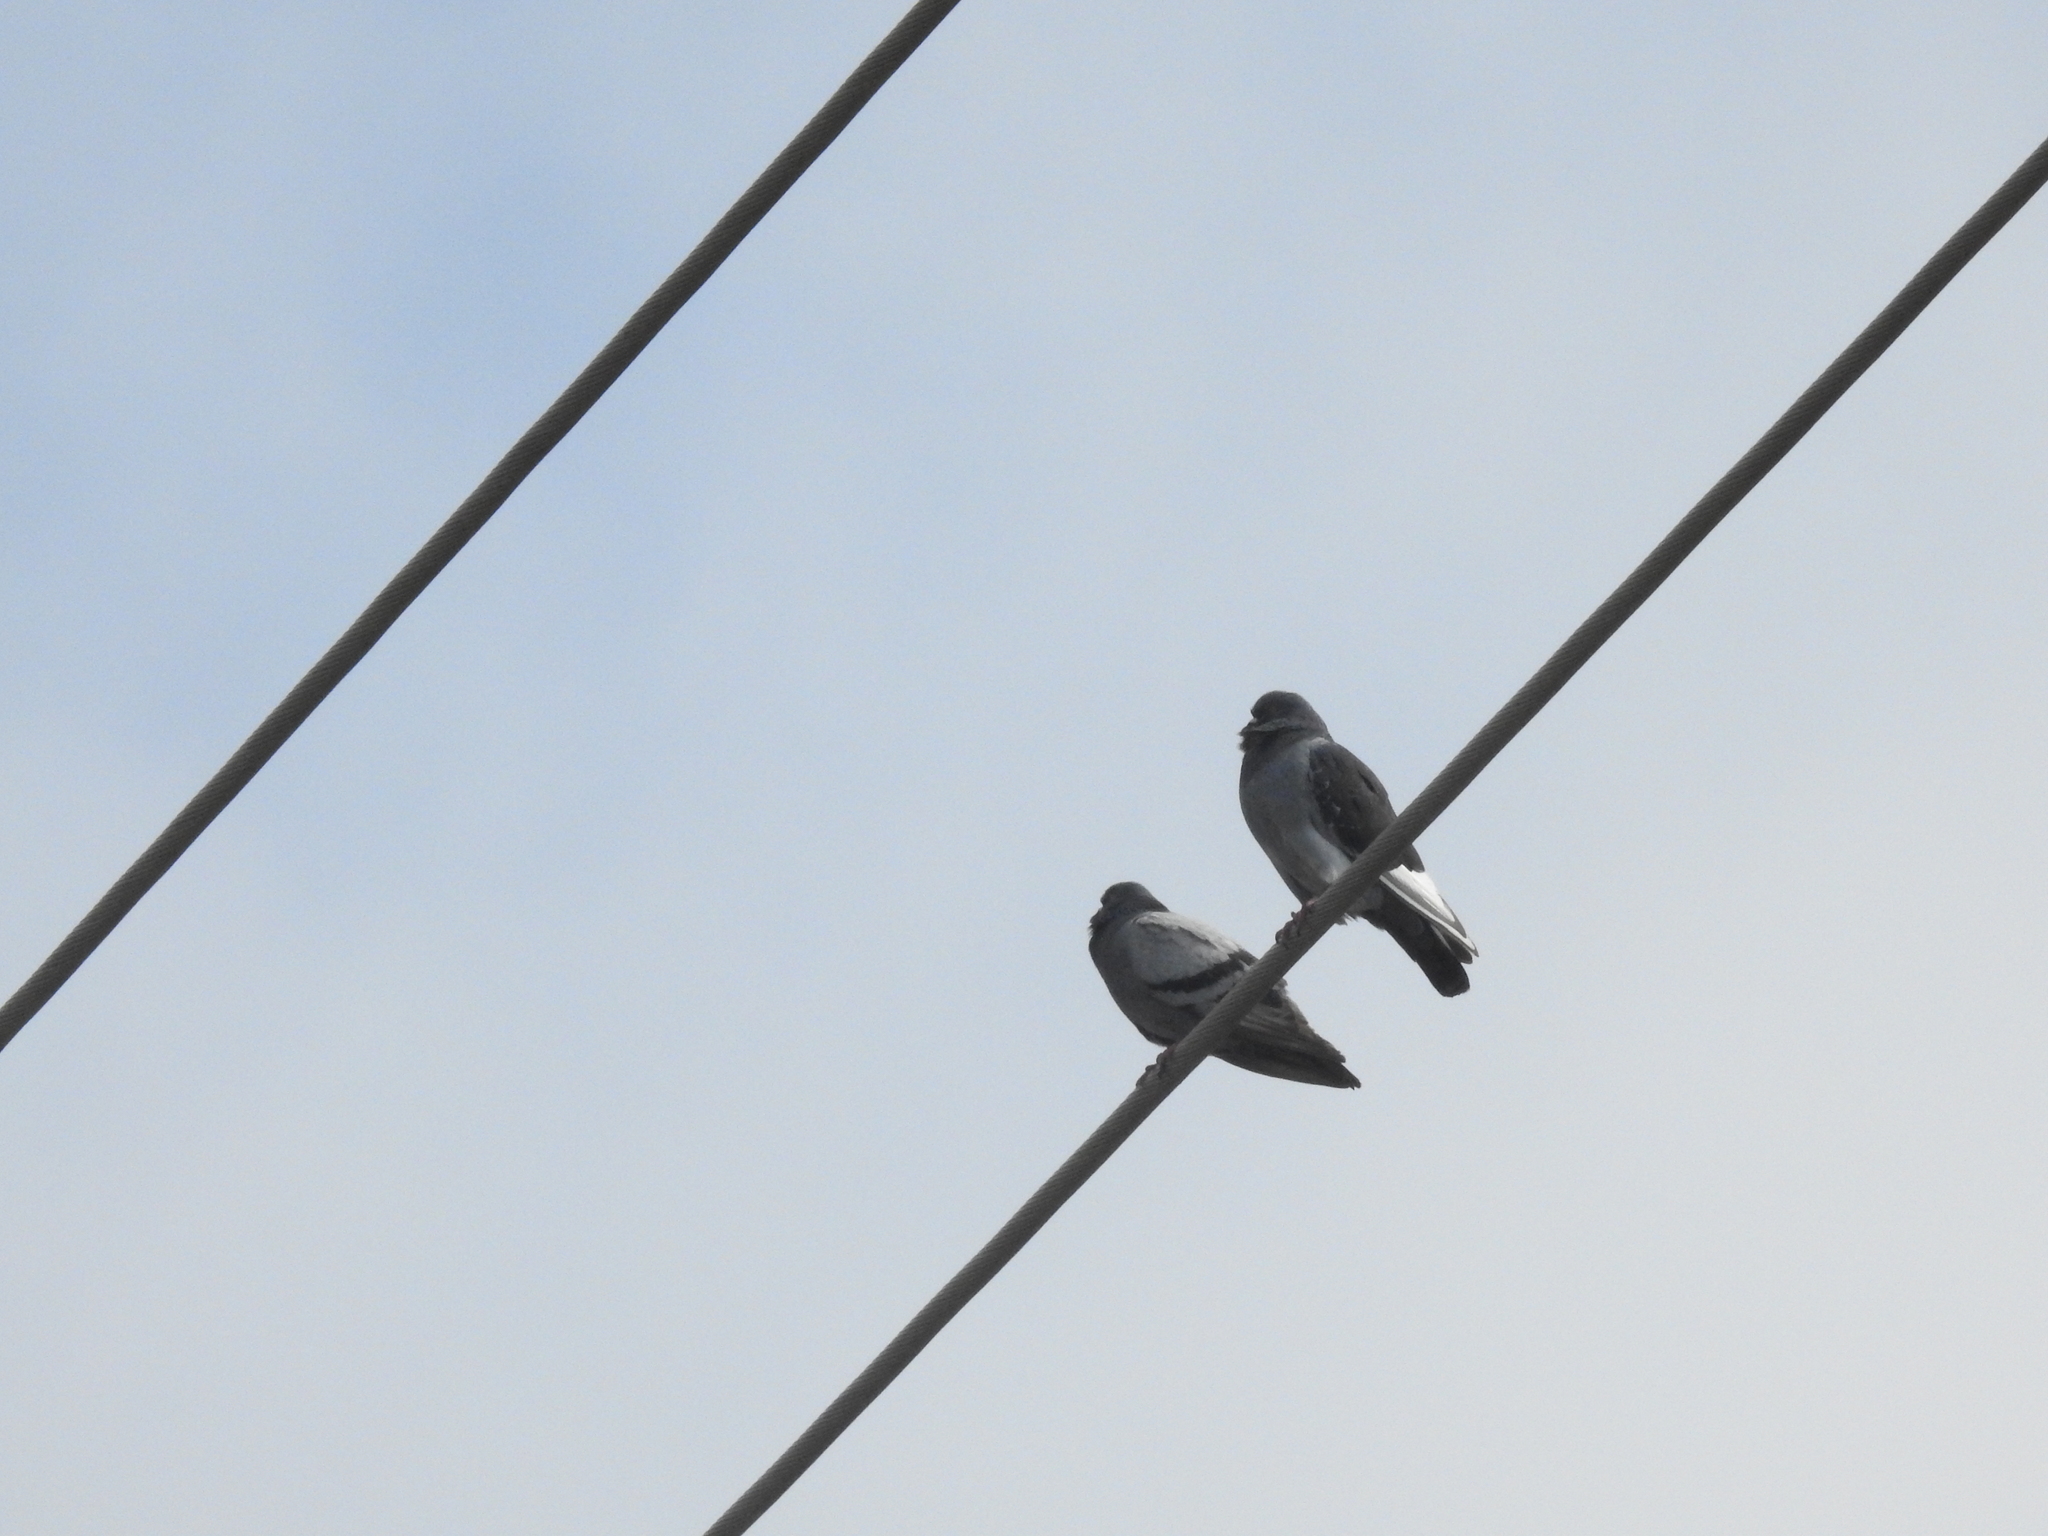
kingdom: Animalia
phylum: Chordata
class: Aves
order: Columbiformes
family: Columbidae
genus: Columba
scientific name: Columba livia
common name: Rock pigeon
